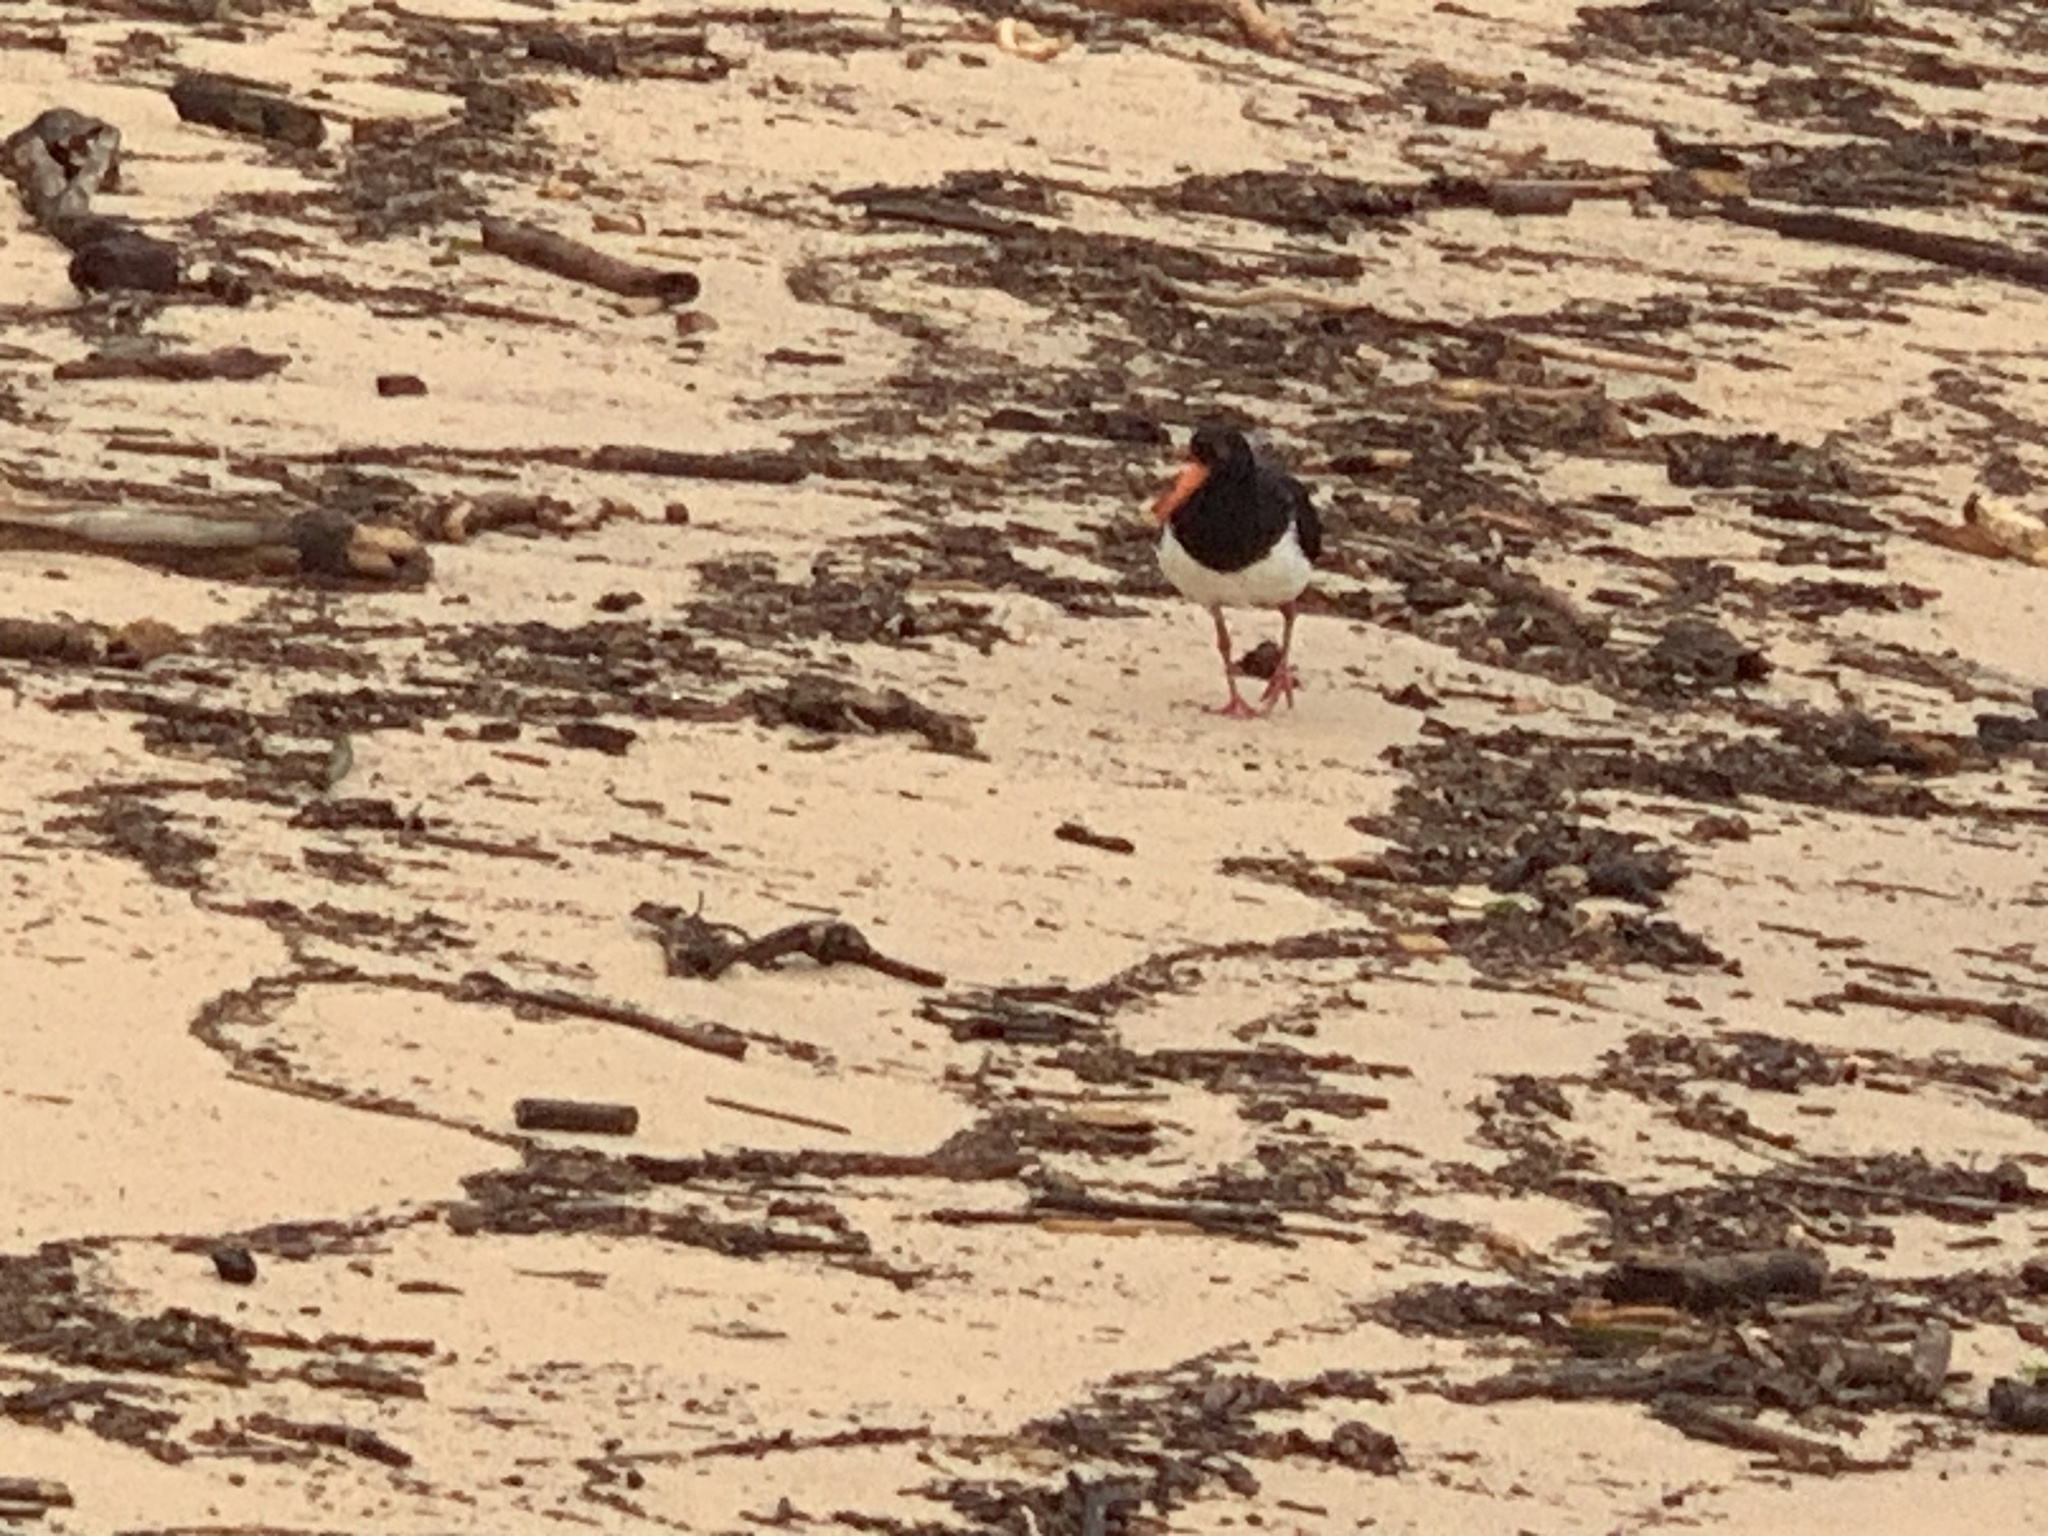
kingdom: Animalia
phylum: Chordata
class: Aves
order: Charadriiformes
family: Haematopodidae
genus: Haematopus
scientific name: Haematopus longirostris
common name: Pied oystercatcher
